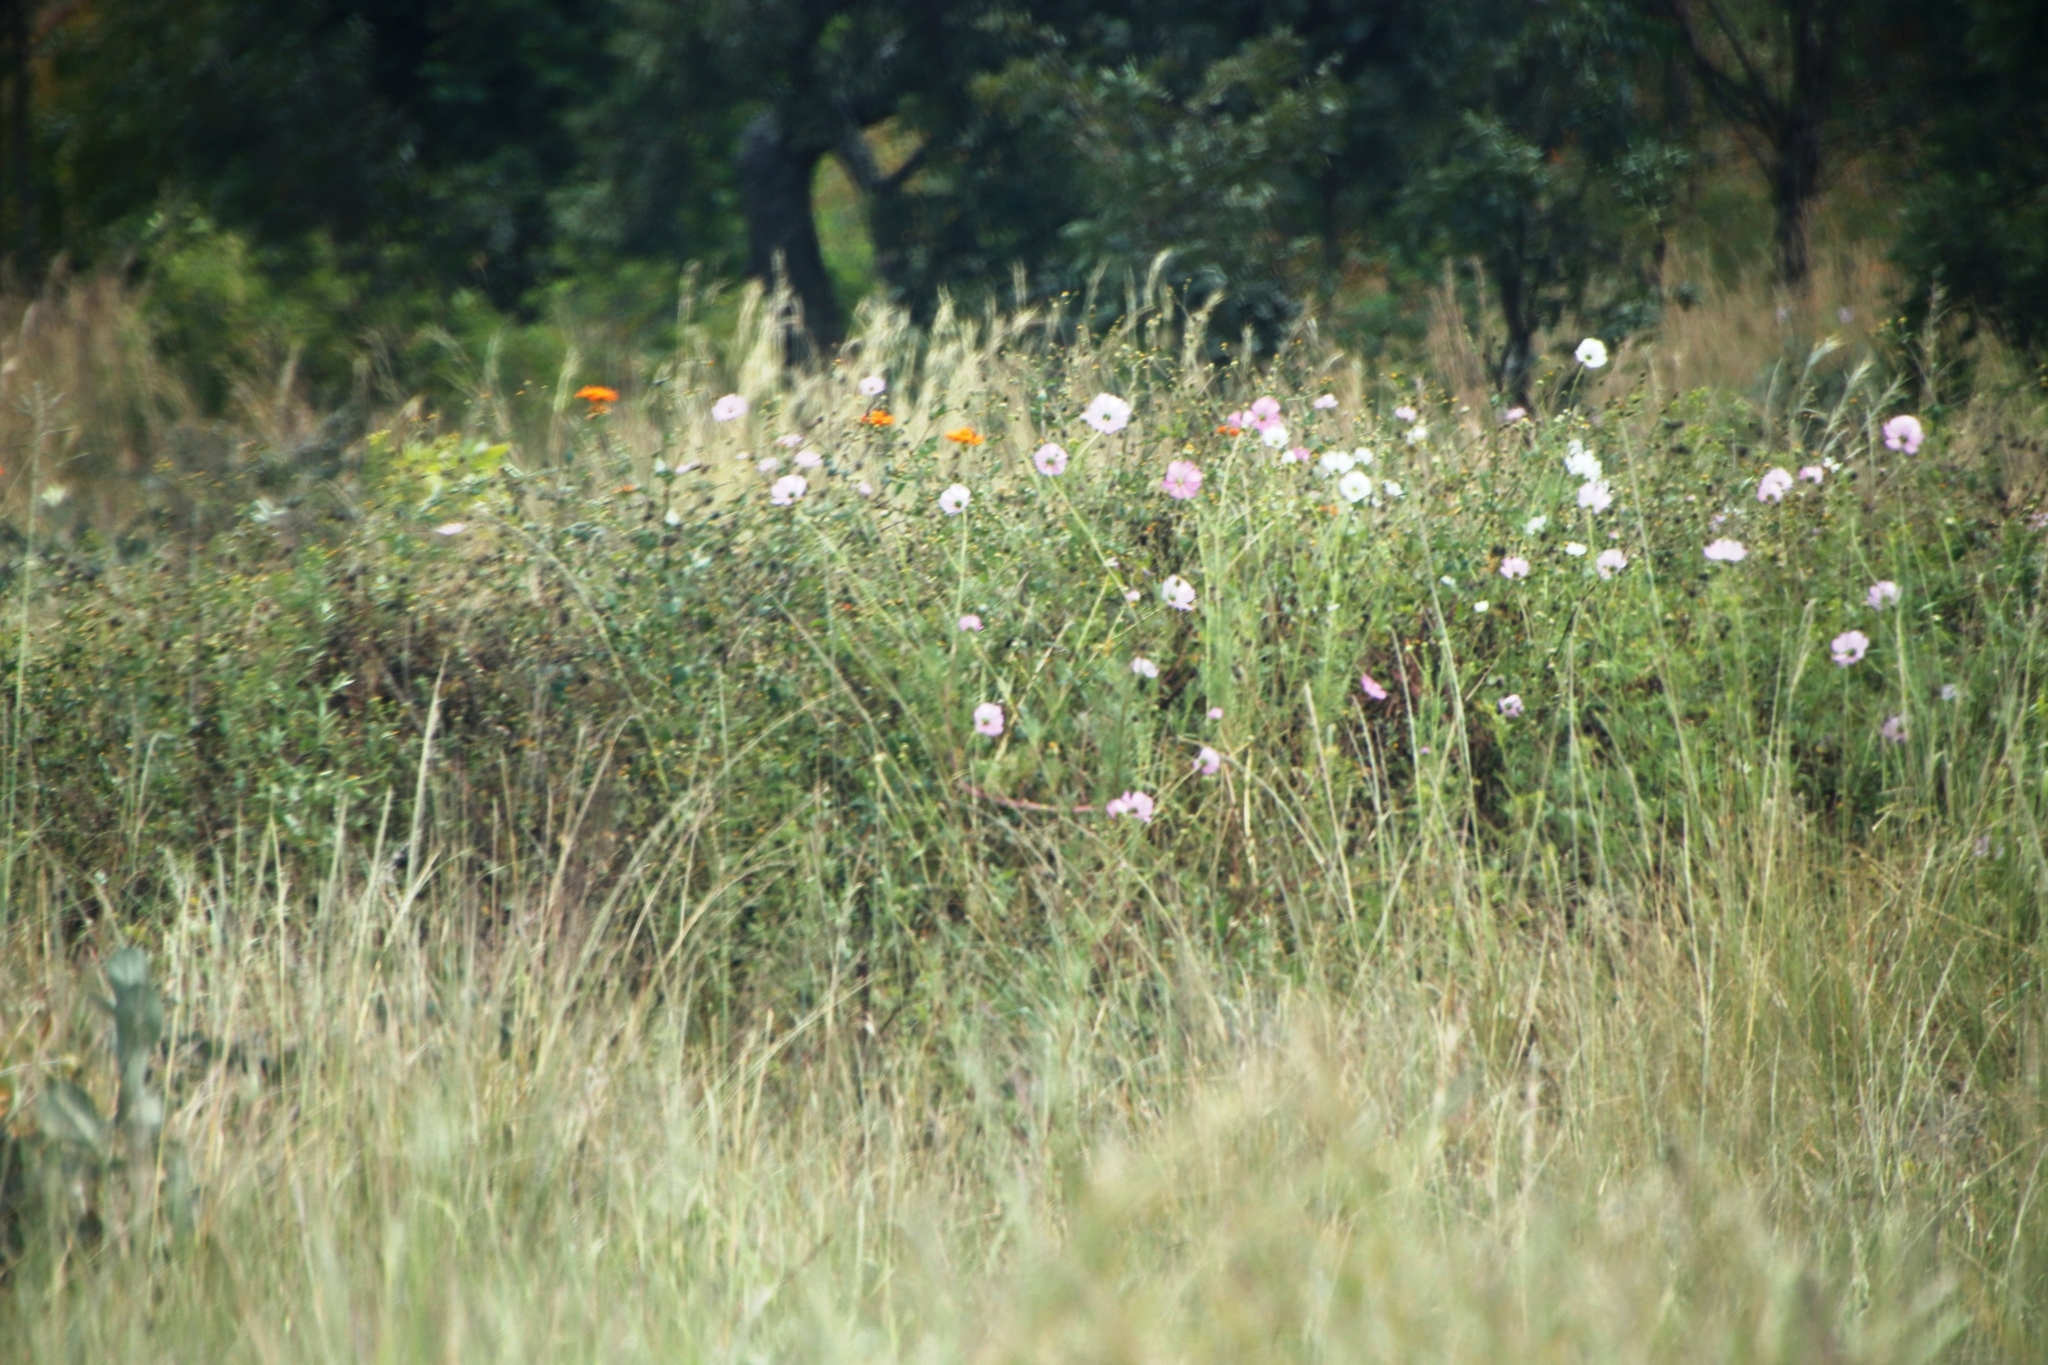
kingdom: Plantae
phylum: Tracheophyta
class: Magnoliopsida
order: Asterales
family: Asteraceae
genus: Cosmos
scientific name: Cosmos bipinnatus
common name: Garden cosmos
